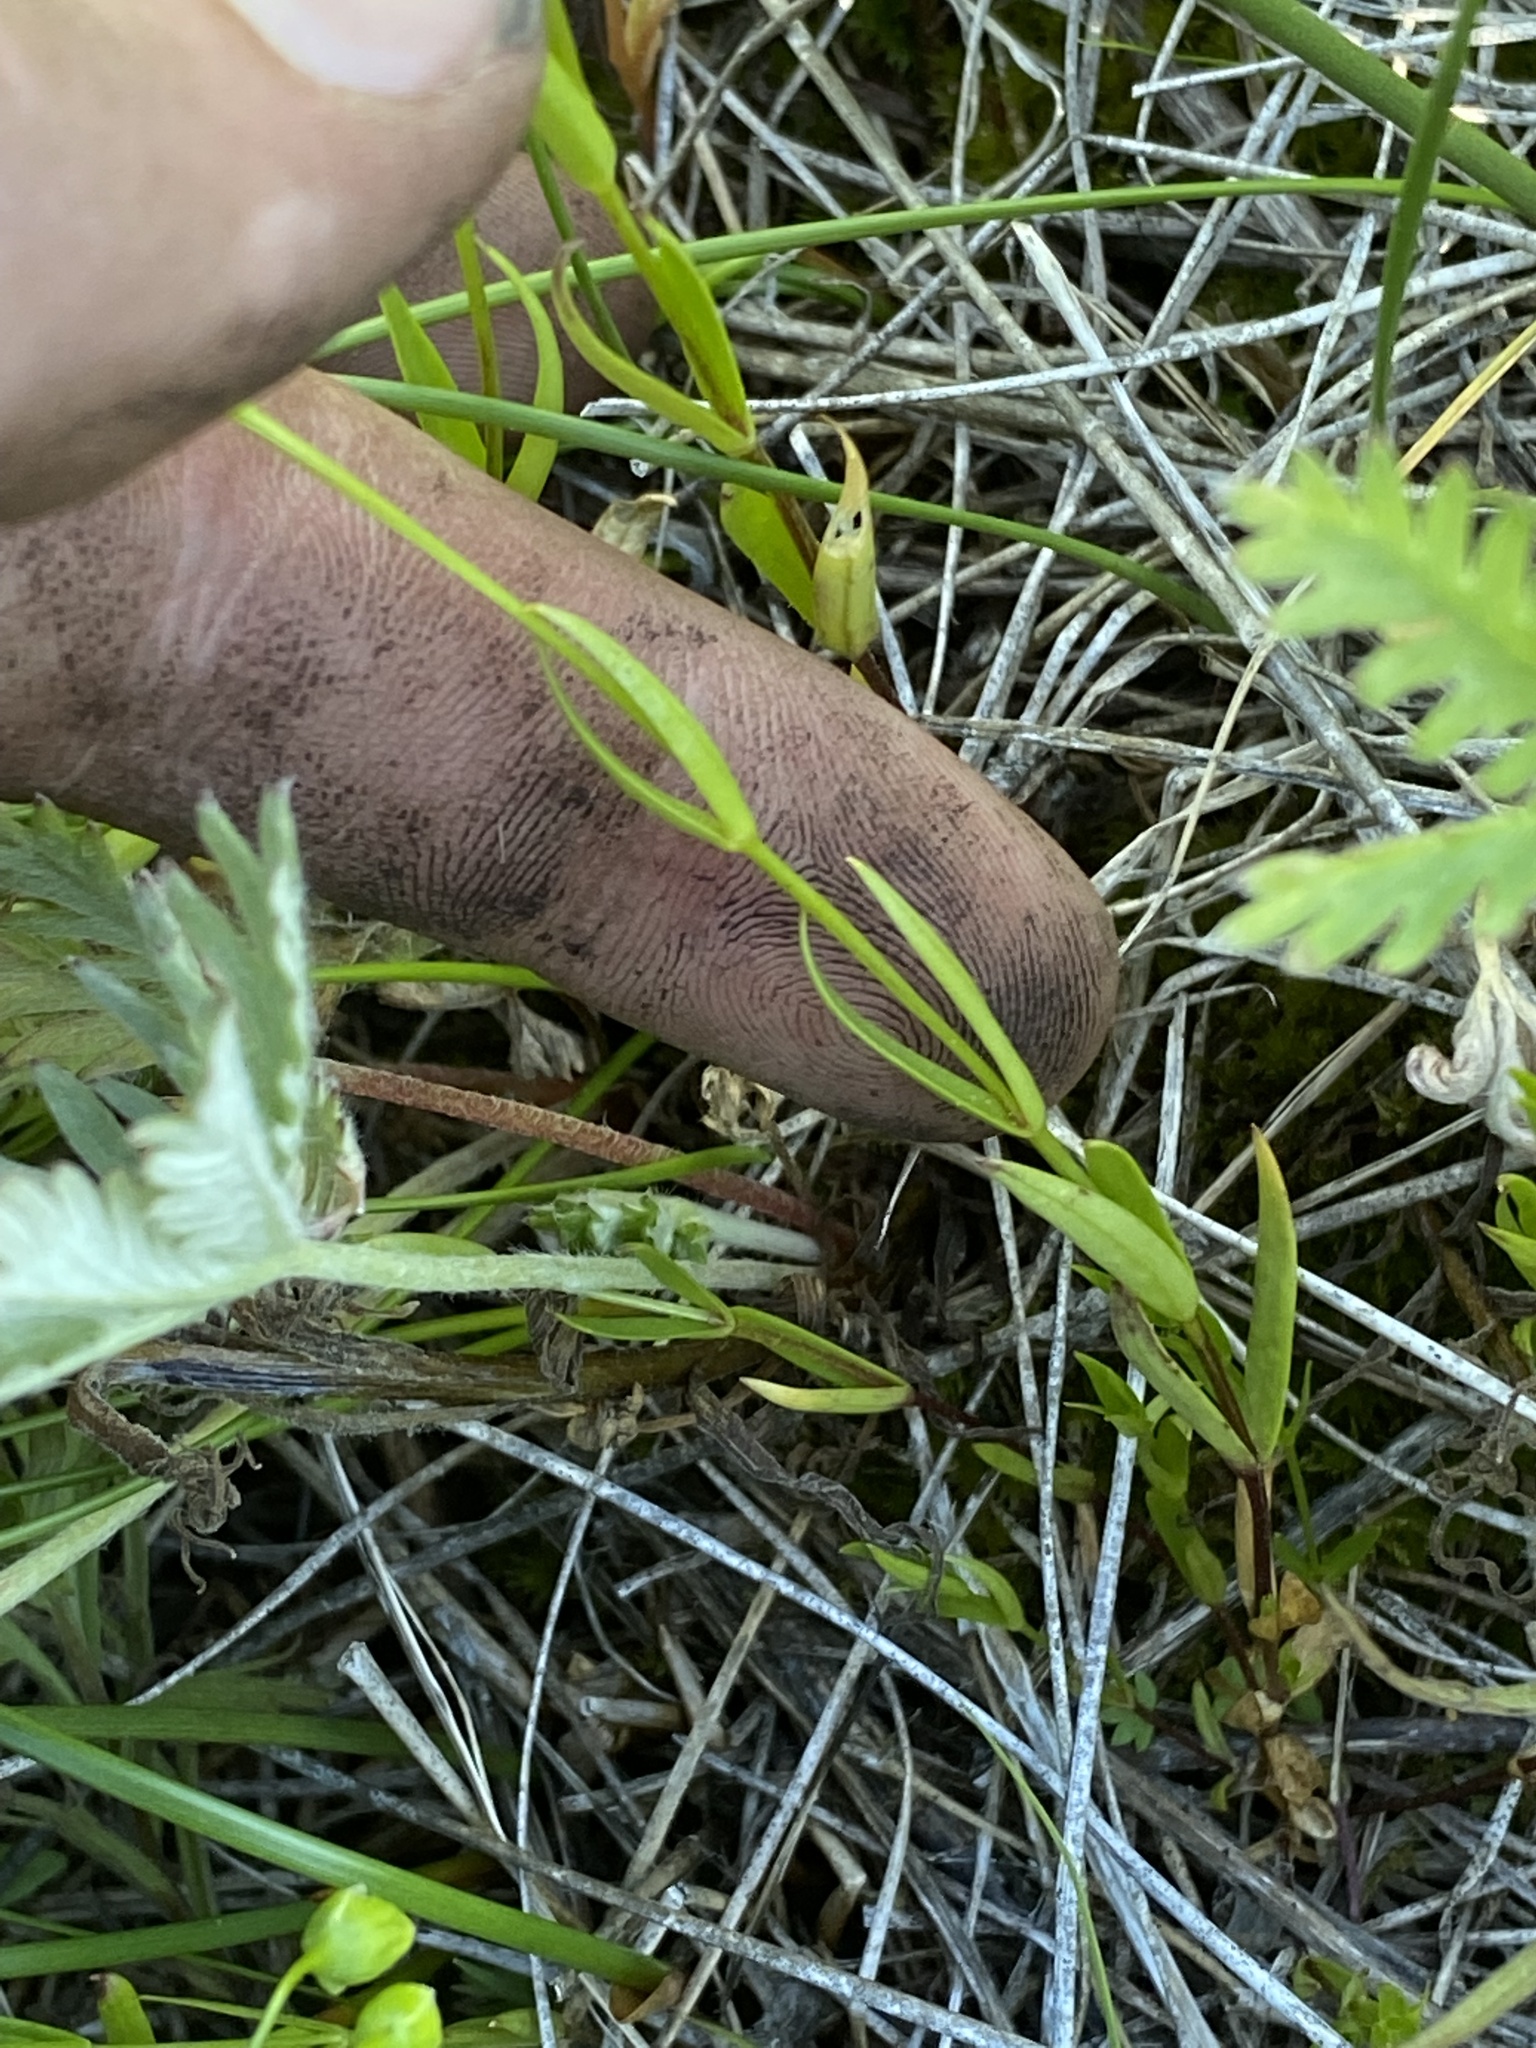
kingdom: Plantae
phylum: Tracheophyta
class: Magnoliopsida
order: Caryophyllales
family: Caryophyllaceae
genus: Stellaria
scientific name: Stellaria longipes
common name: Goldie's starwort
